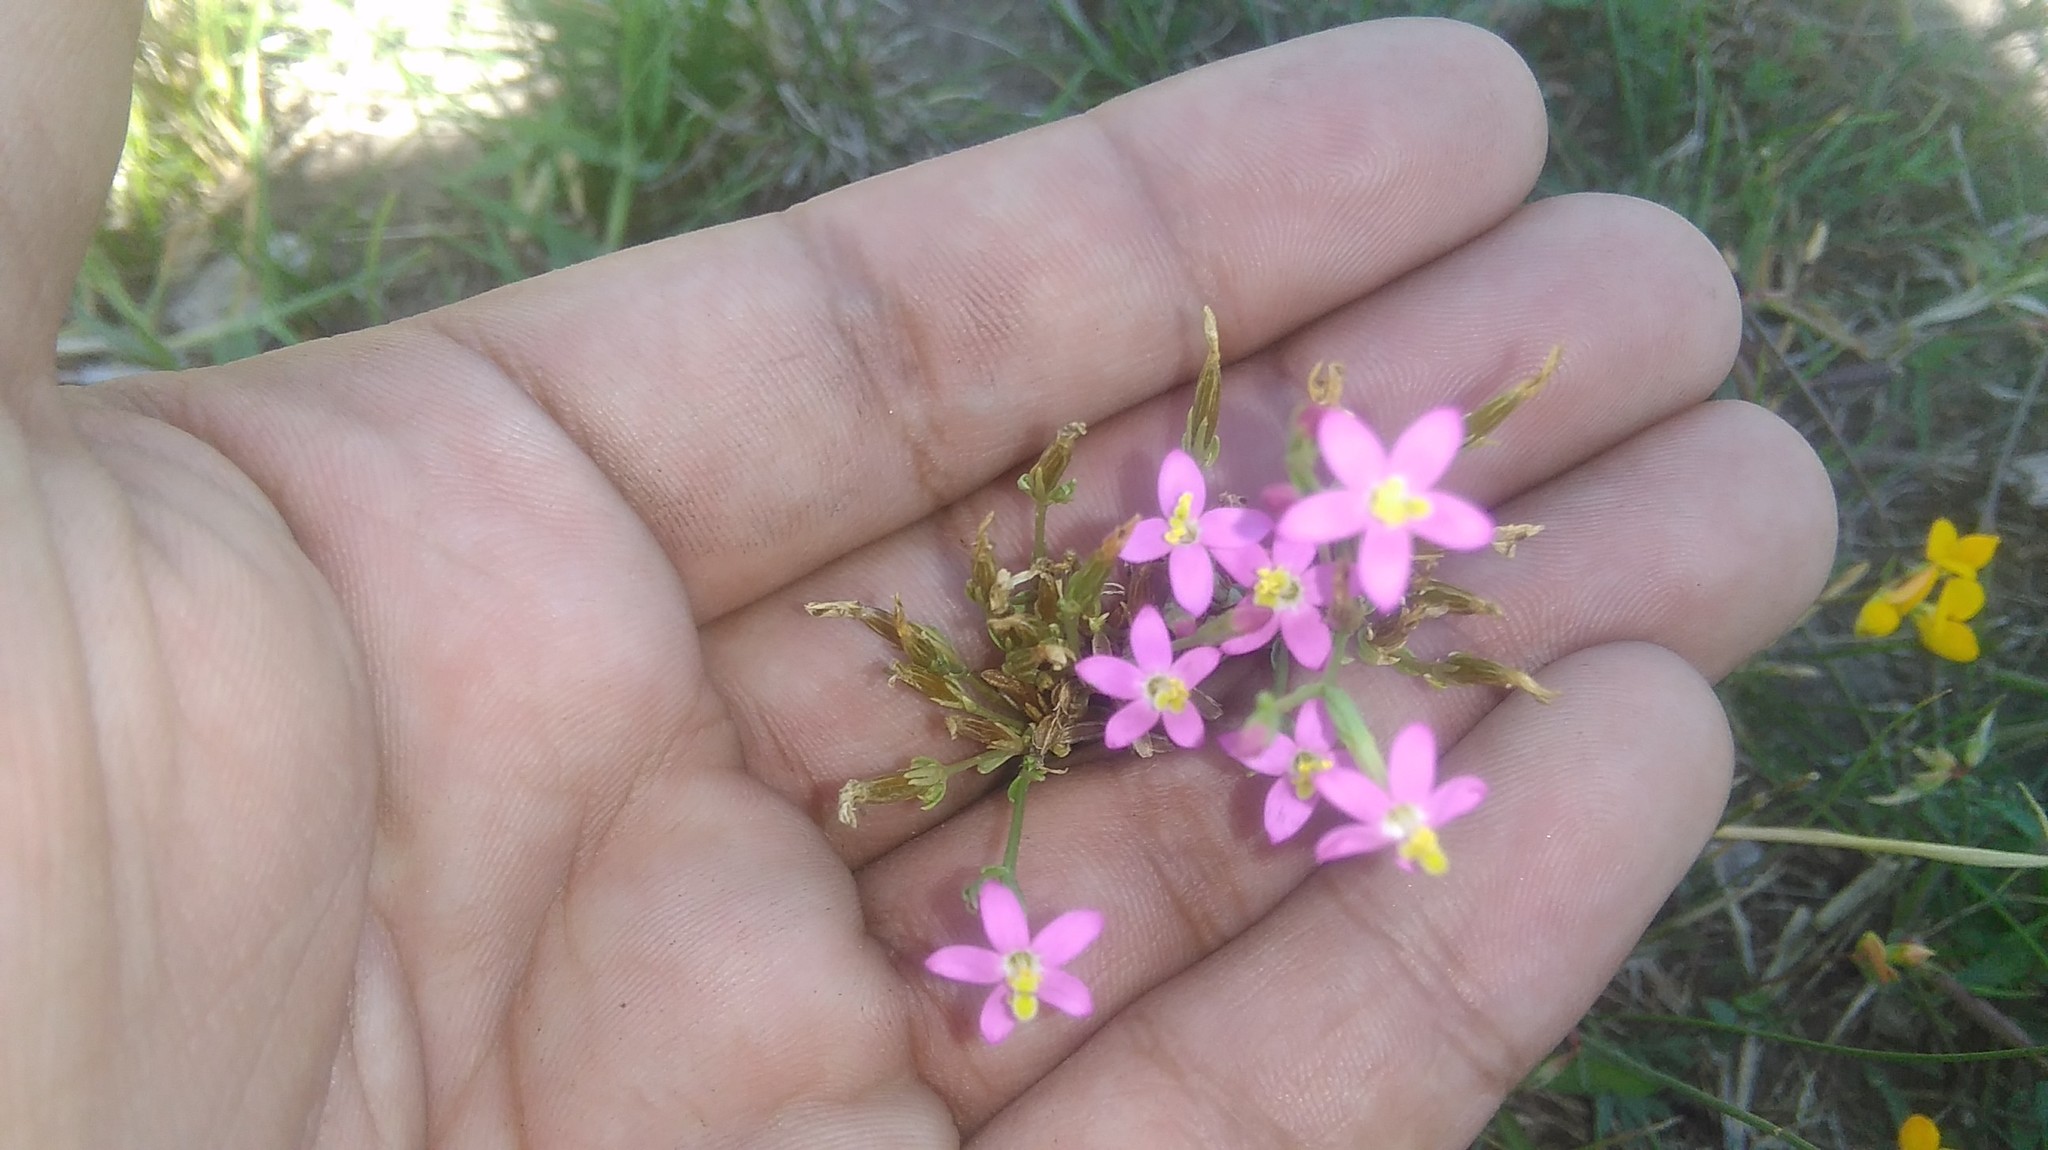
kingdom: Plantae
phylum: Tracheophyta
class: Magnoliopsida
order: Gentianales
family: Gentianaceae
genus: Centaurium
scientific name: Centaurium pulchellum
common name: Lesser centaury
